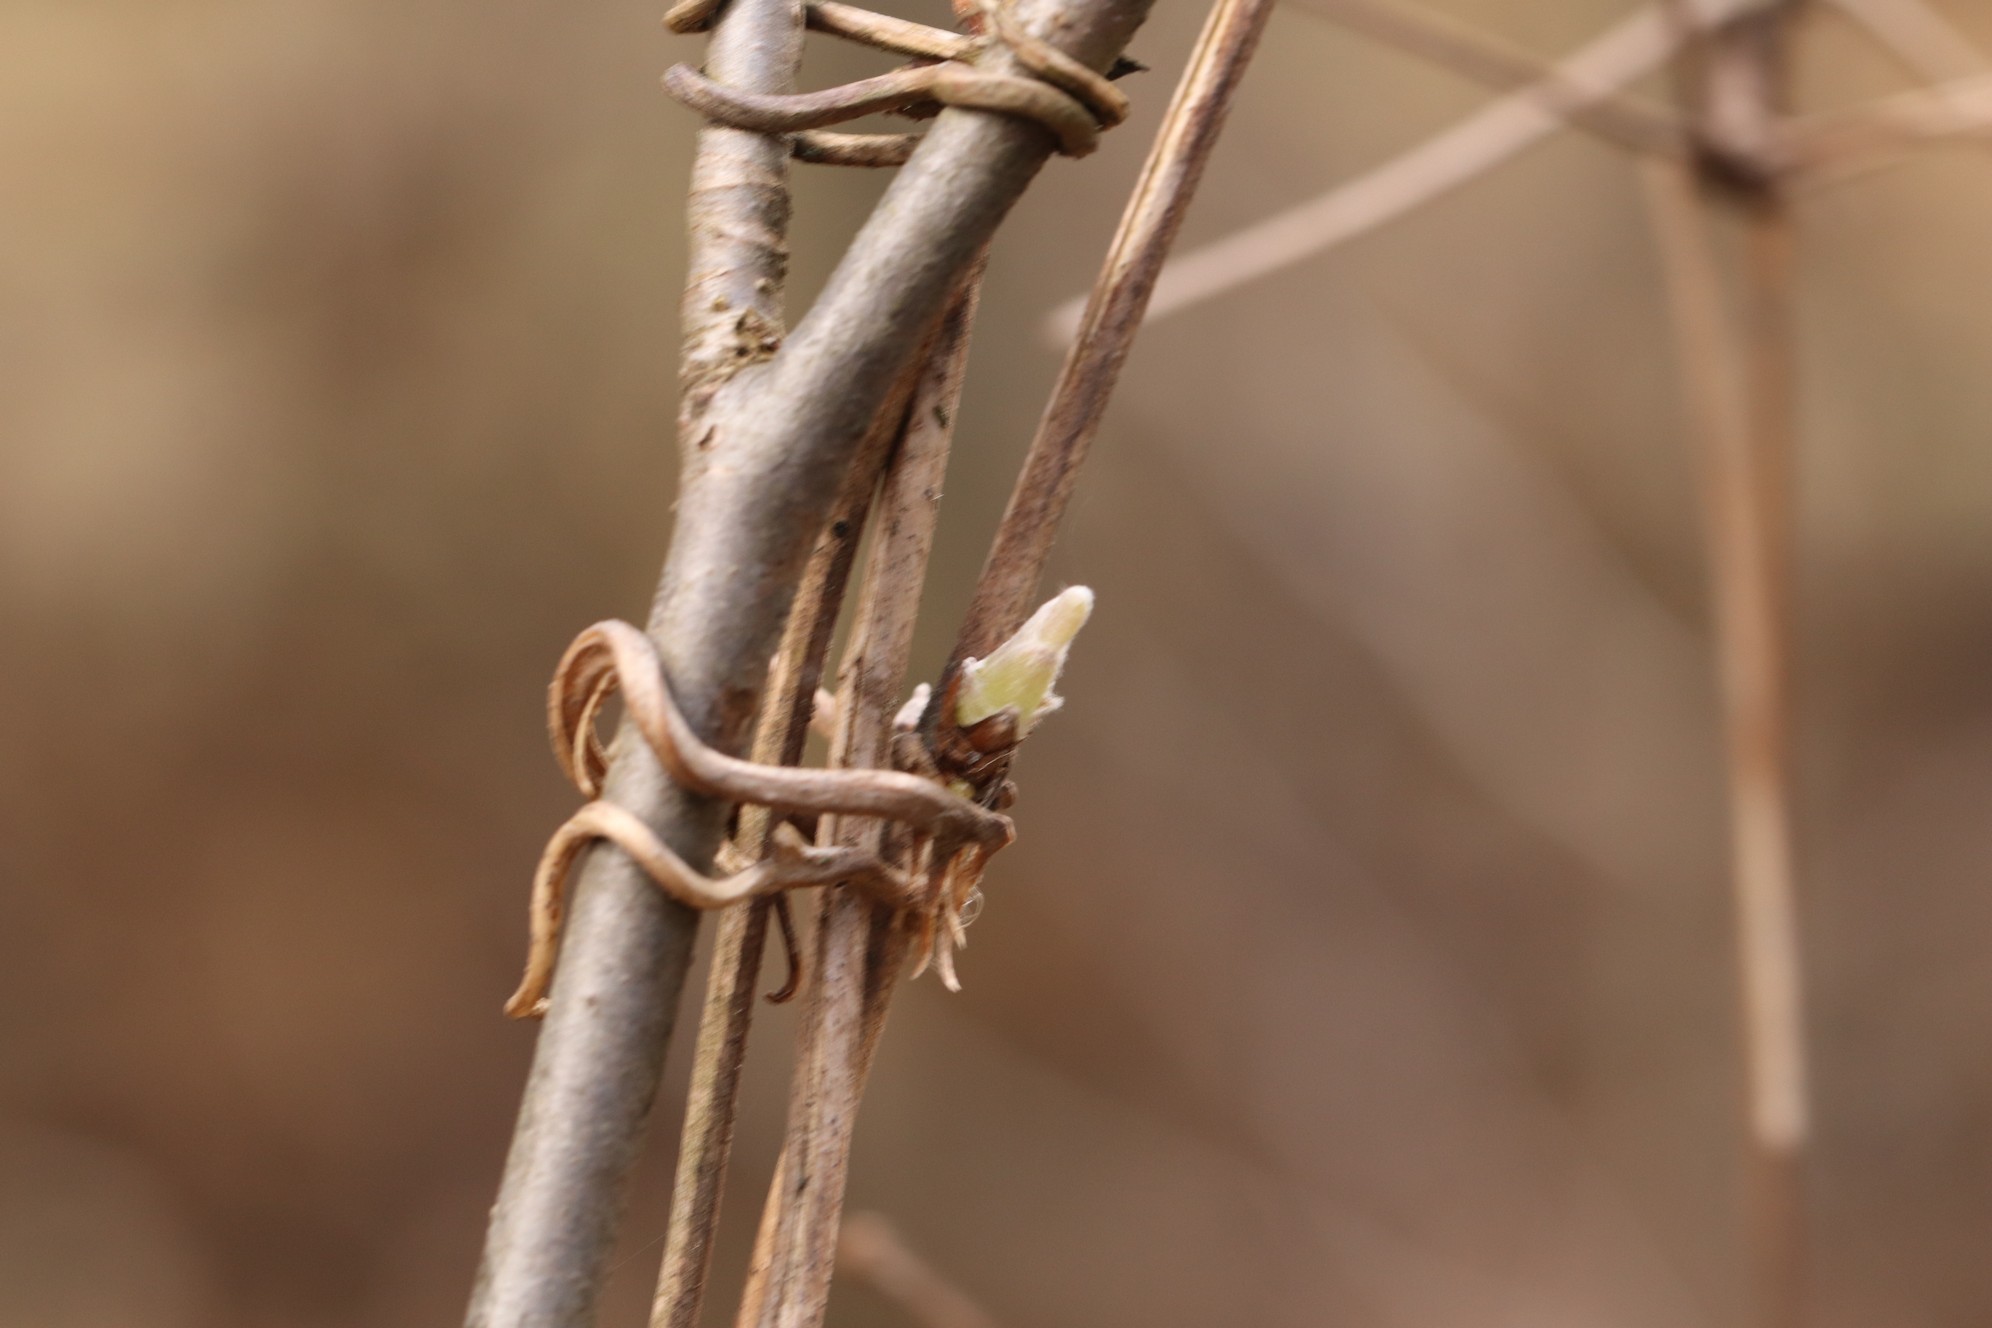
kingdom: Plantae
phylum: Tracheophyta
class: Magnoliopsida
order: Ranunculales
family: Ranunculaceae
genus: Clematis
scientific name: Clematis sibirica
